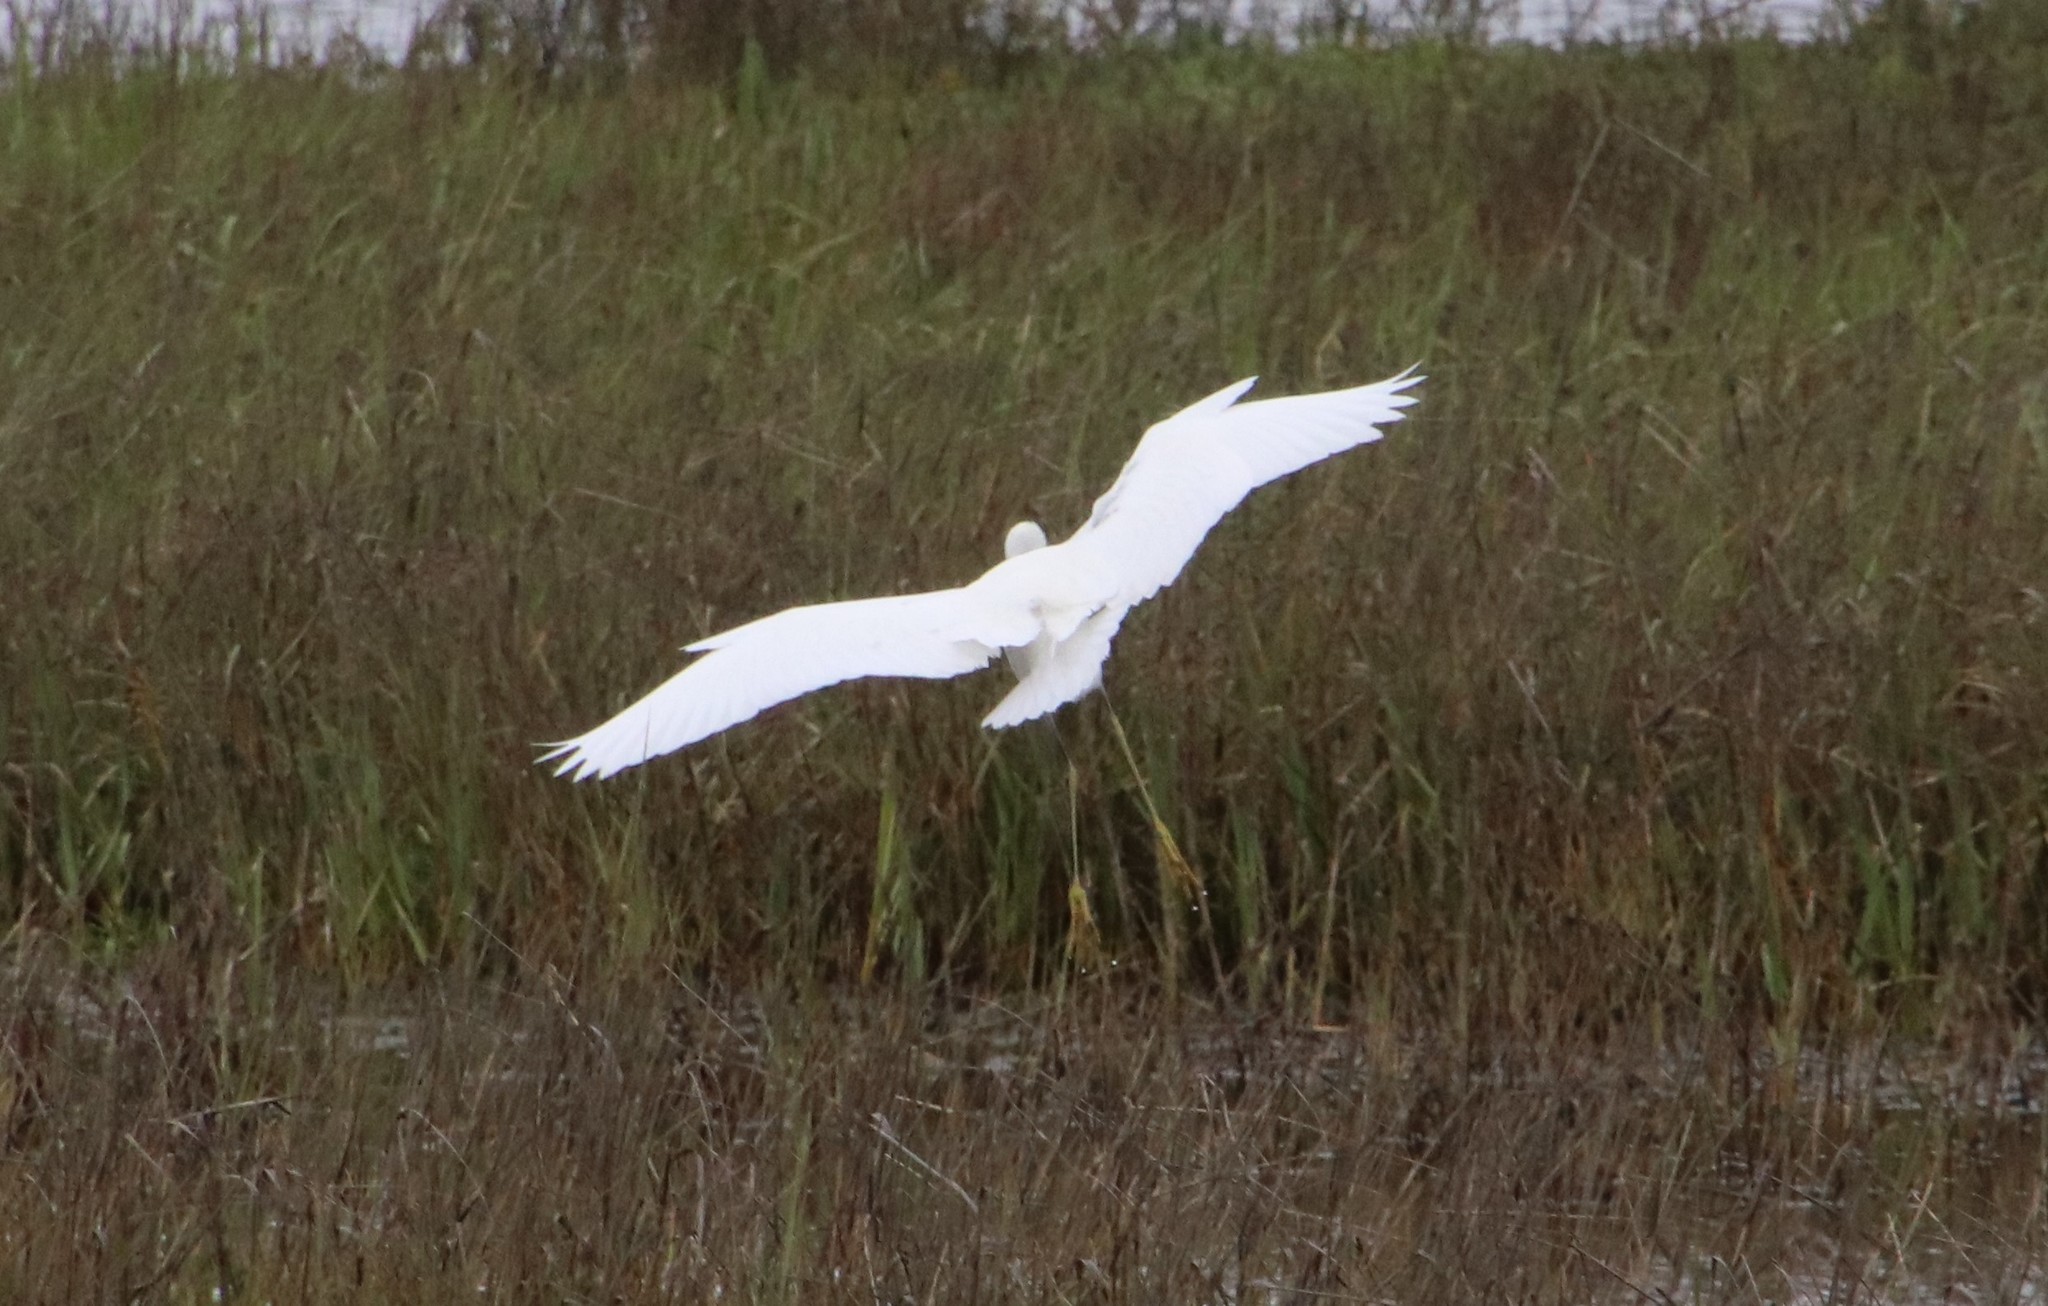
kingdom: Animalia
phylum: Chordata
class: Aves
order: Pelecaniformes
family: Ardeidae
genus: Egretta
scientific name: Egretta thula
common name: Snowy egret
